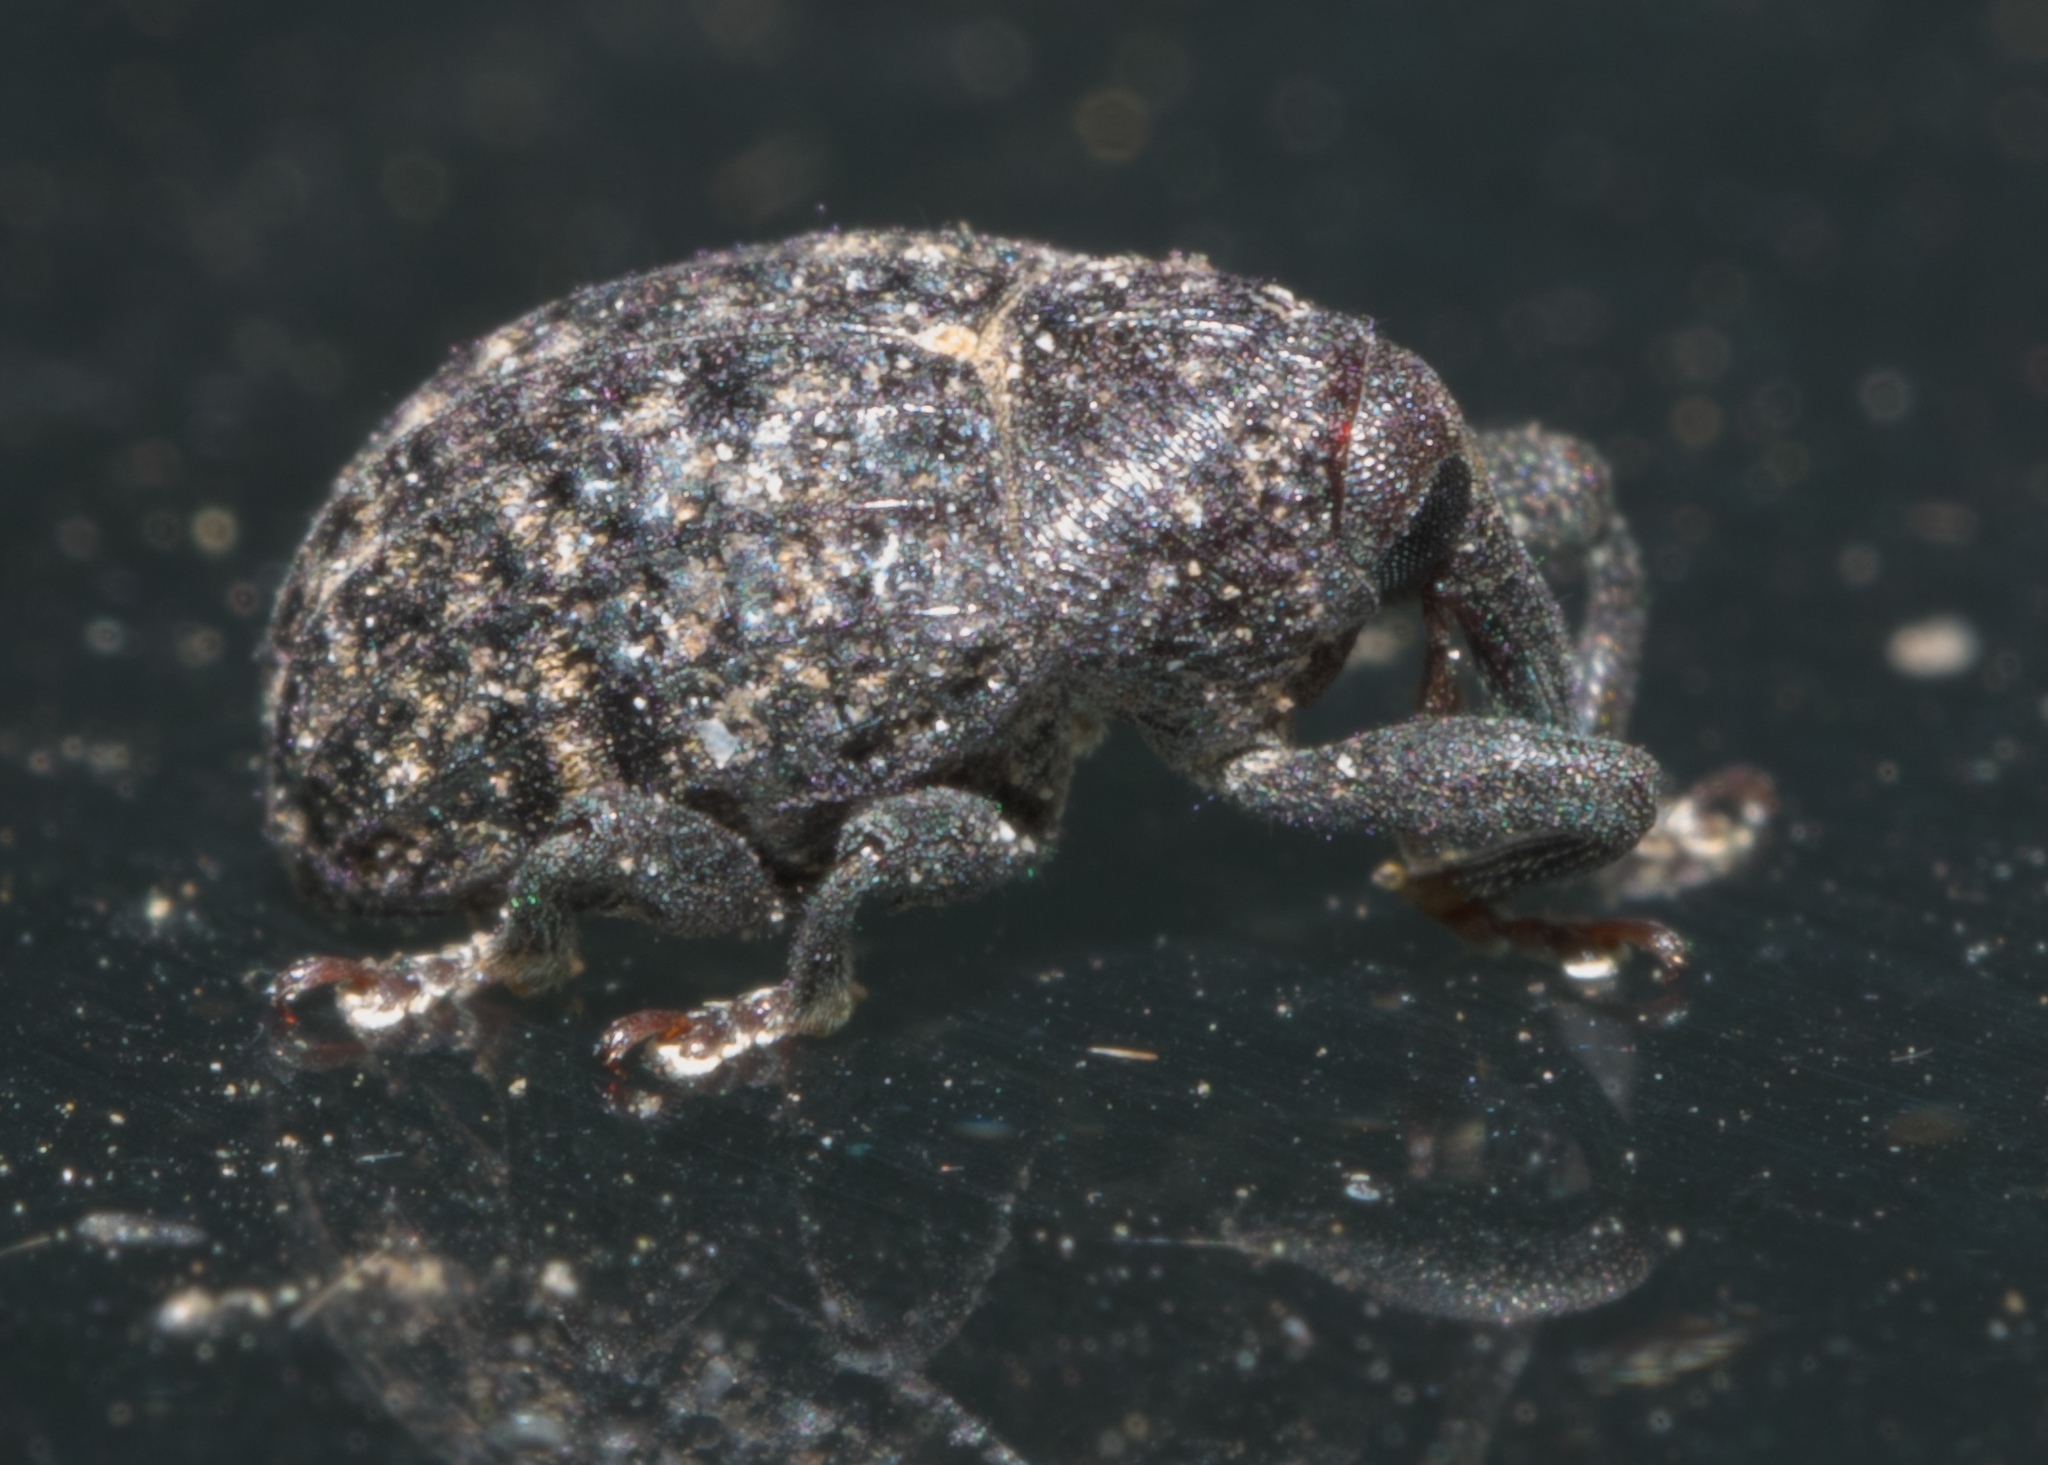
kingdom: Animalia
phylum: Arthropoda
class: Insecta
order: Coleoptera
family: Curculionidae
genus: Rhyssomatus
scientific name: Rhyssomatus palmacollis
